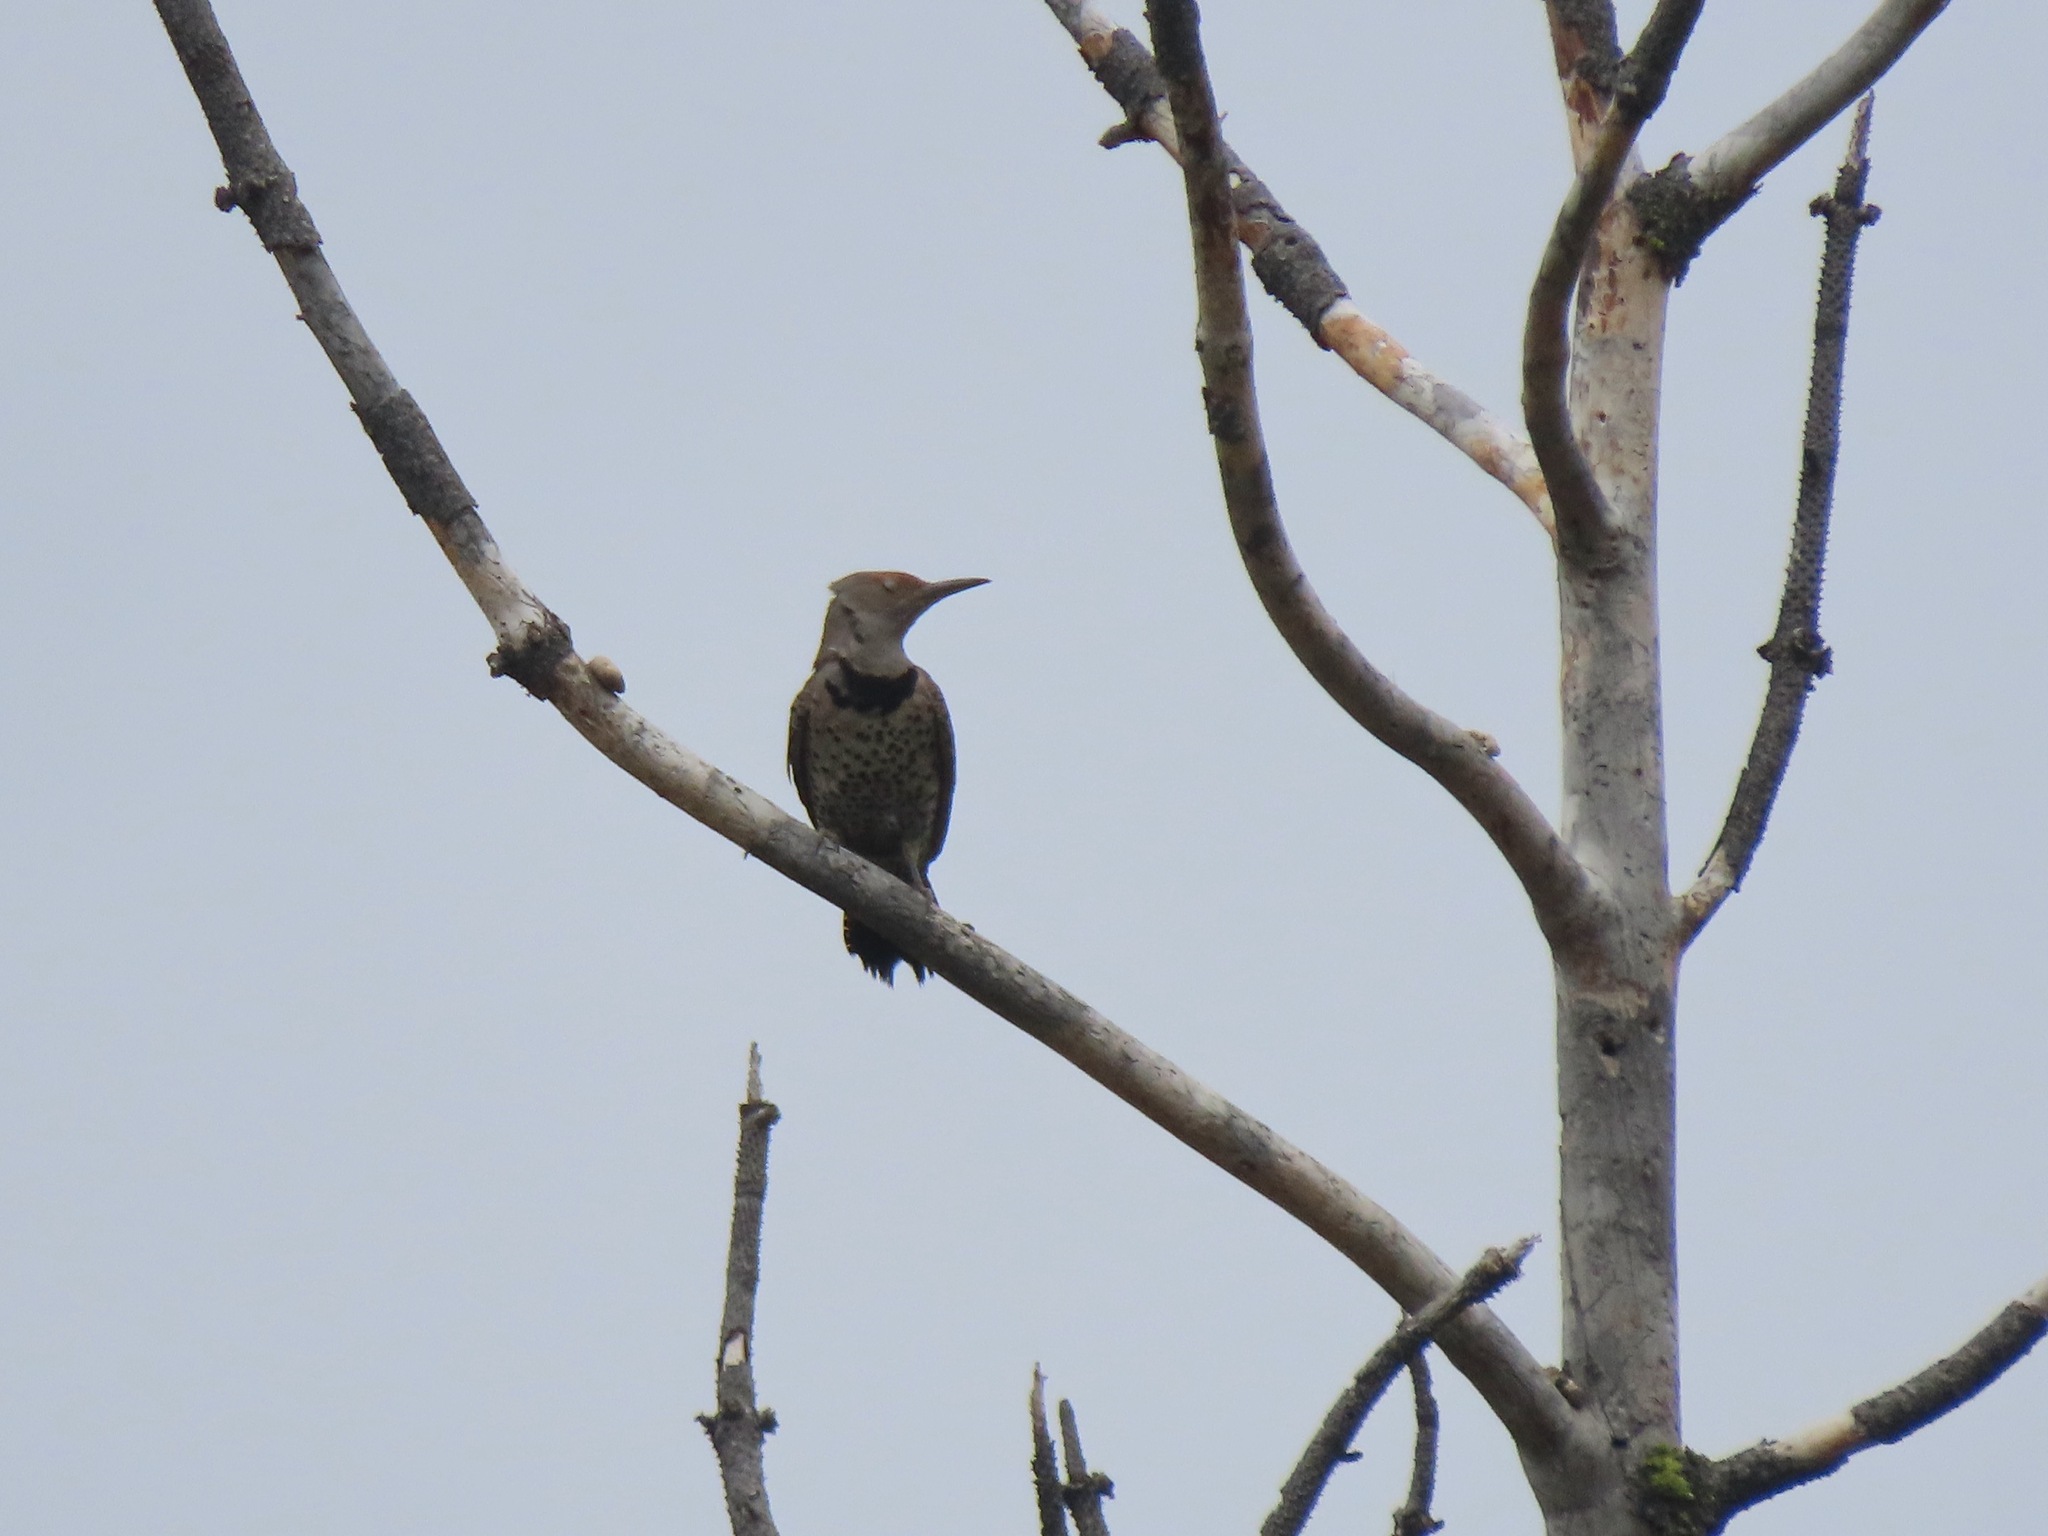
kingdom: Animalia
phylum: Chordata
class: Aves
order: Piciformes
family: Picidae
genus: Colaptes
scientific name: Colaptes auratus
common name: Northern flicker
